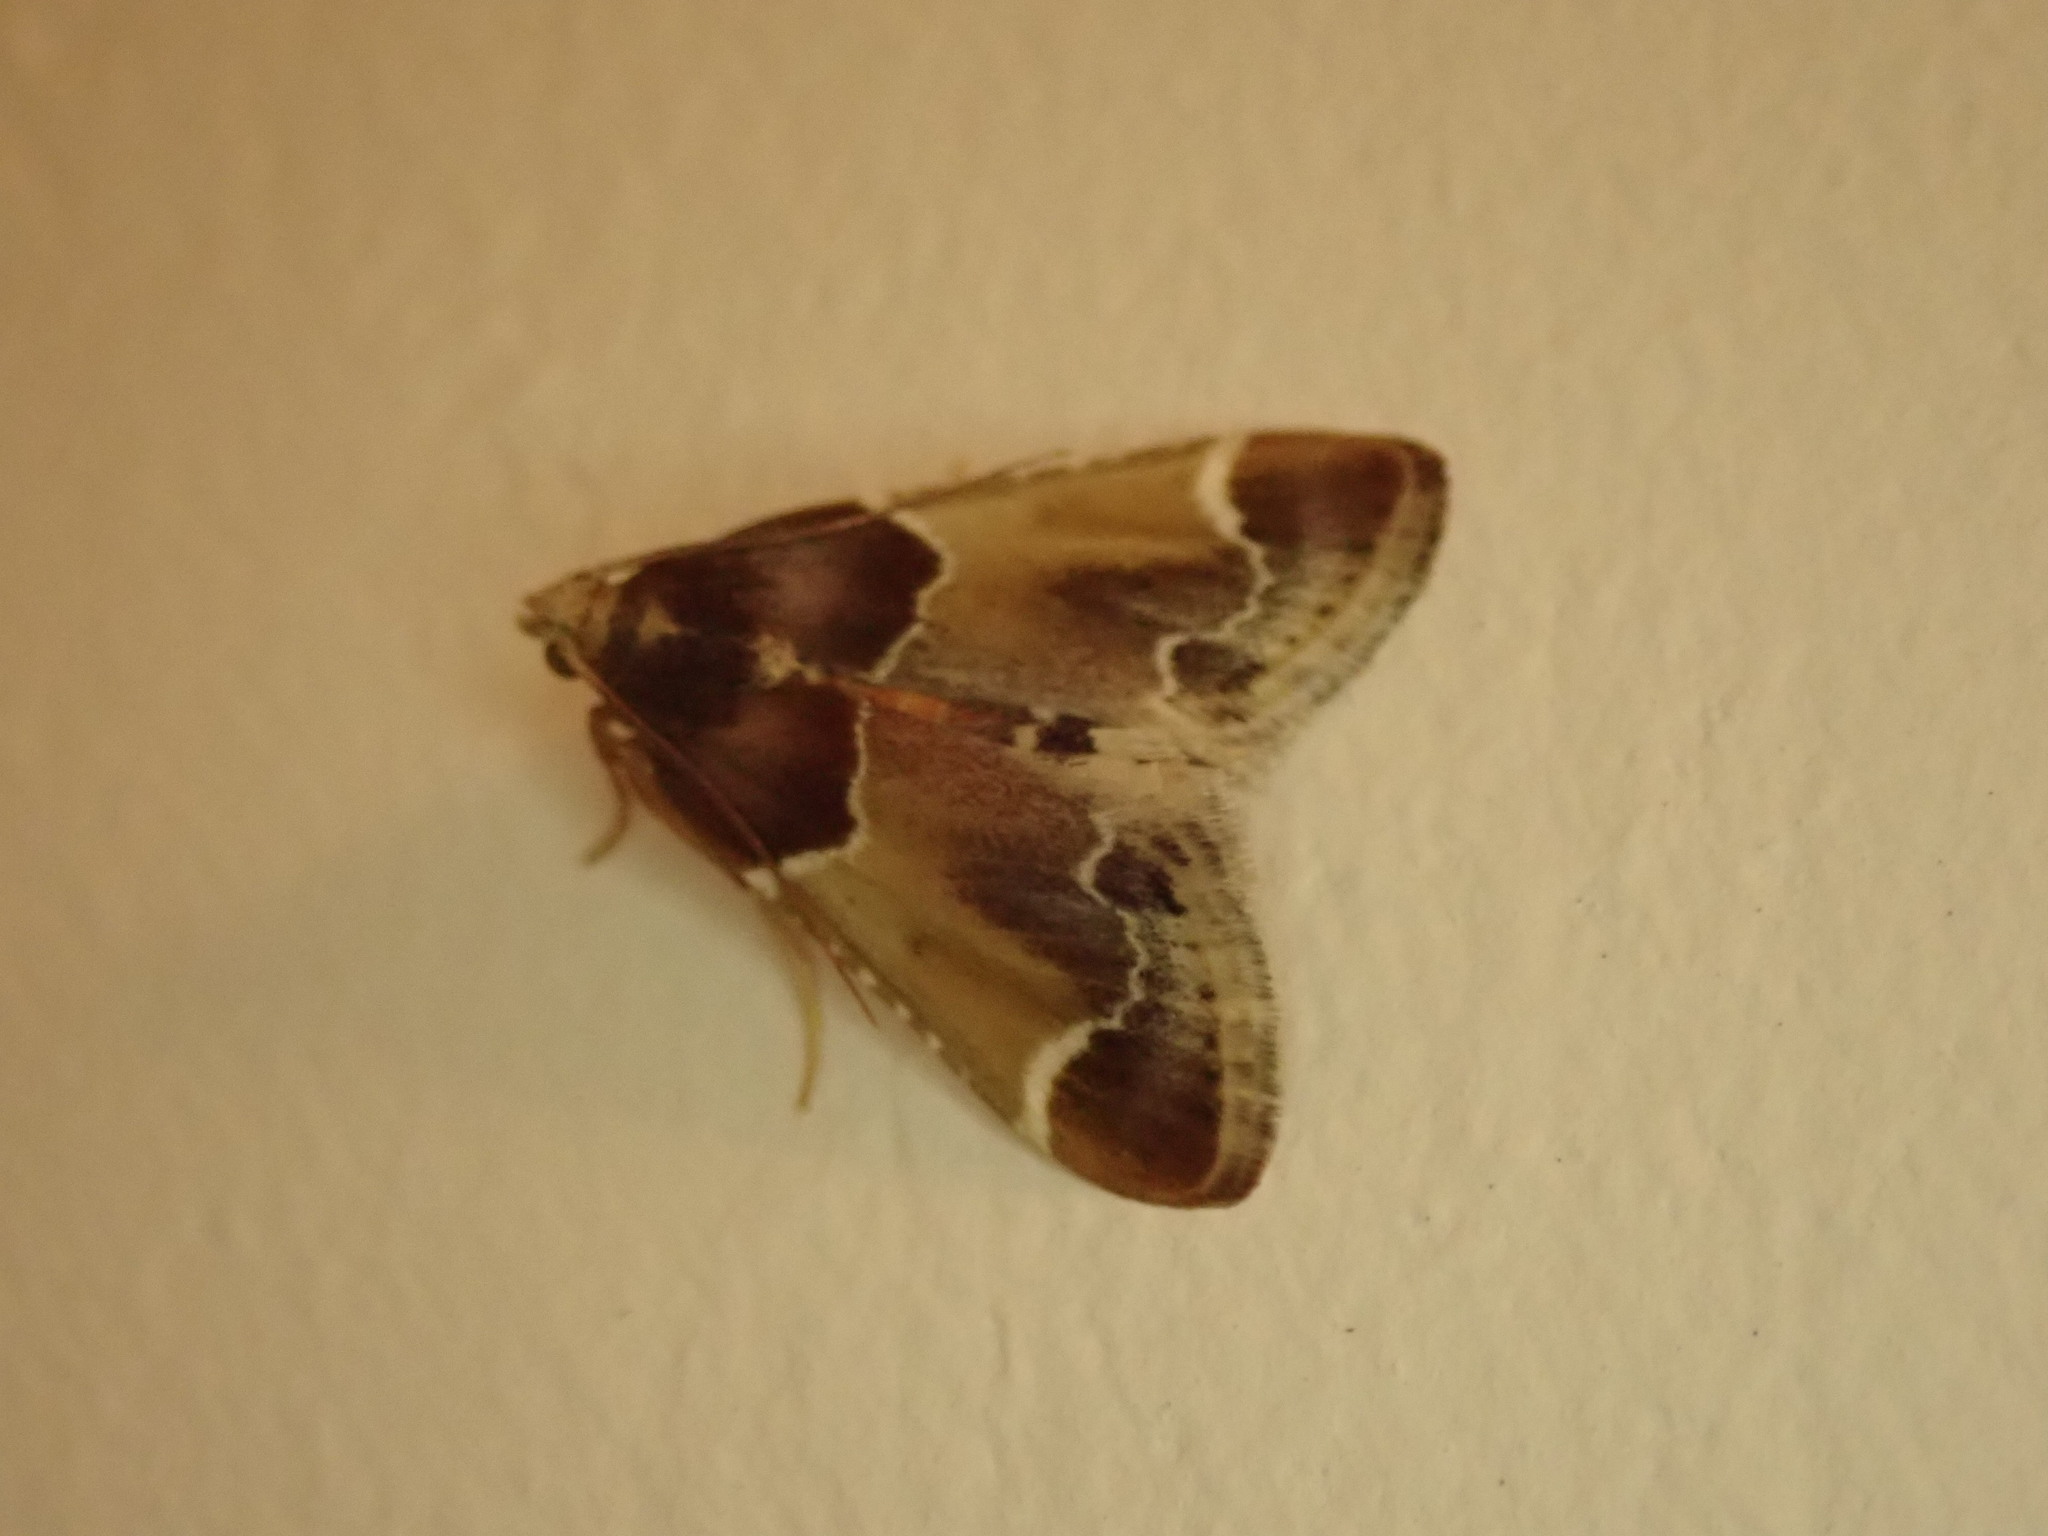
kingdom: Animalia
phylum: Arthropoda
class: Insecta
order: Lepidoptera
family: Pyralidae
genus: Pyralis
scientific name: Pyralis farinalis
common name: Meal moth
